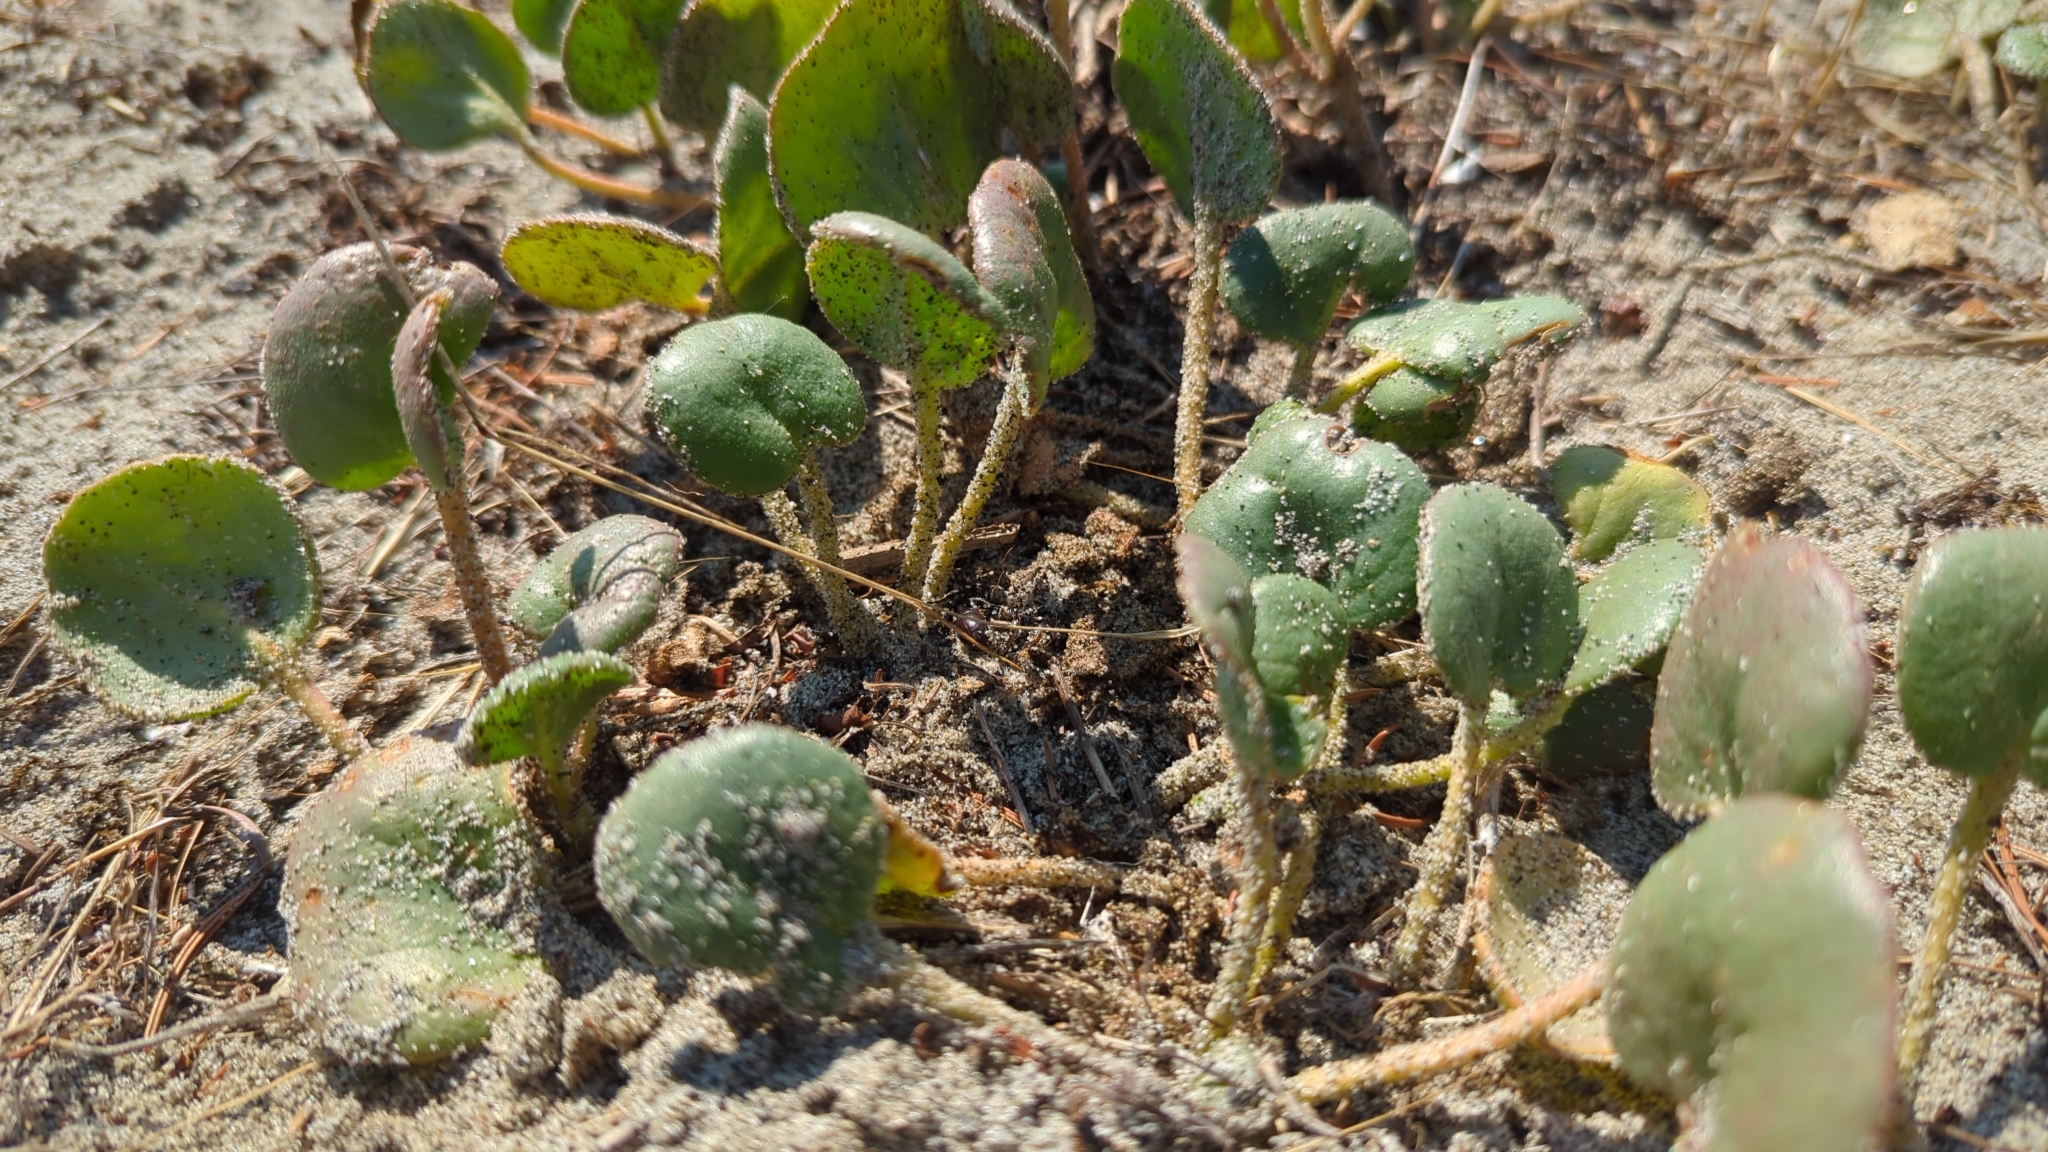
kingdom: Plantae
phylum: Tracheophyta
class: Magnoliopsida
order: Caryophyllales
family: Nyctaginaceae
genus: Abronia
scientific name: Abronia latifolia
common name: Yellow sand-verbena
